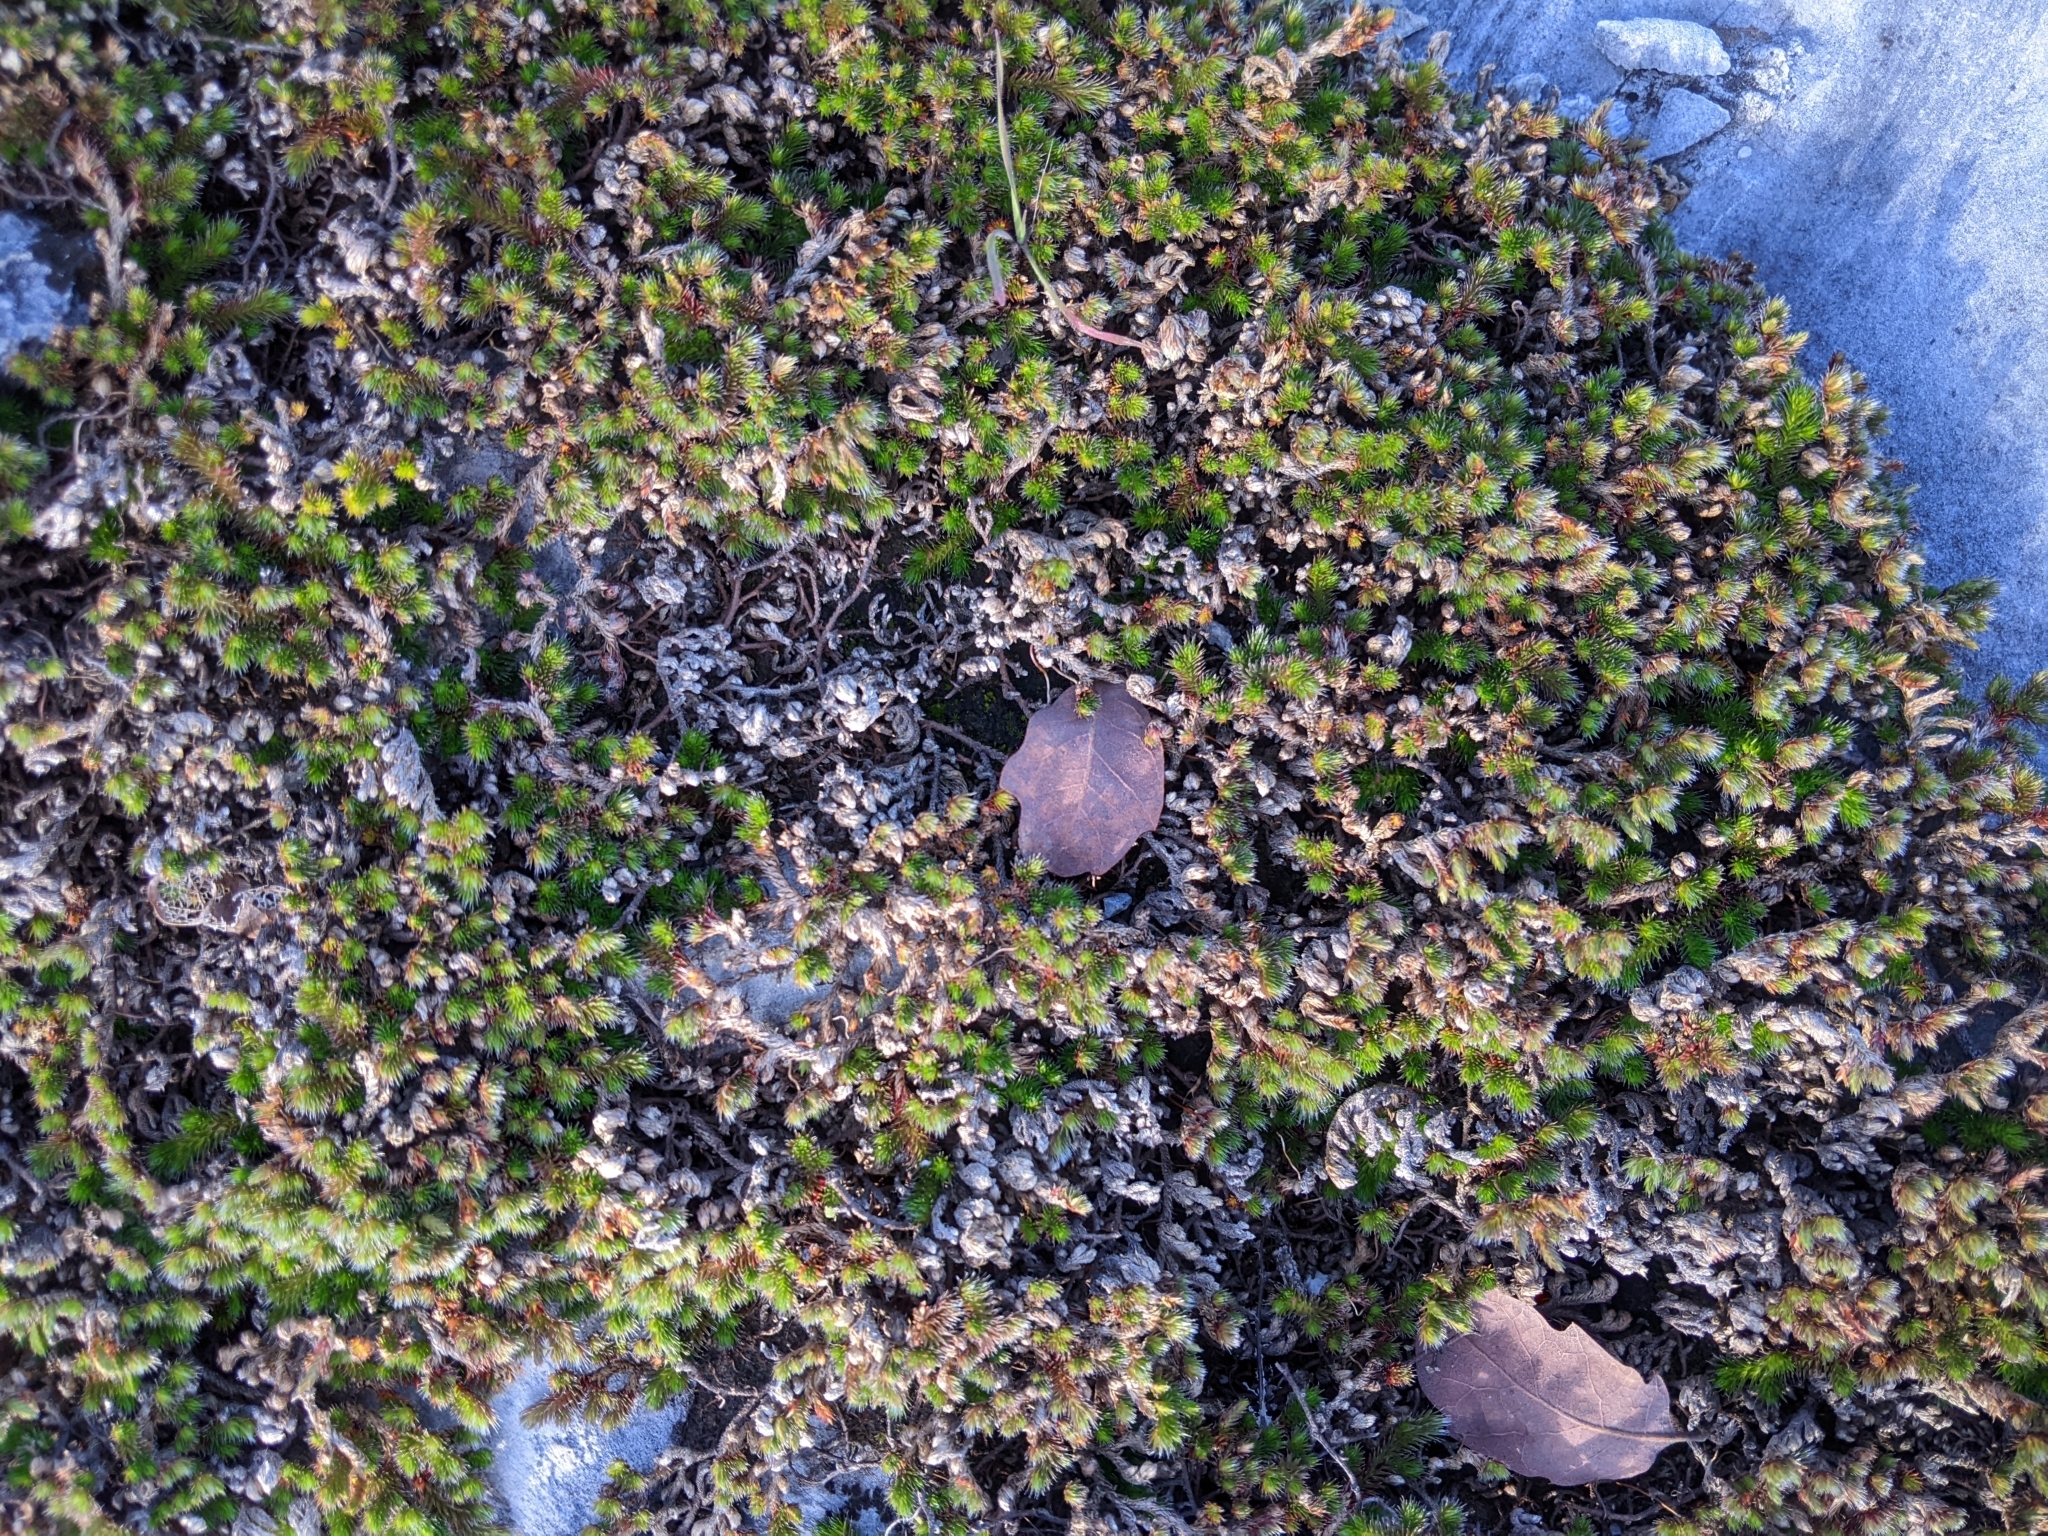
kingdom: Plantae
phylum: Tracheophyta
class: Lycopodiopsida
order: Selaginellales
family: Selaginellaceae
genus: Selaginella
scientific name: Selaginella hansenii
